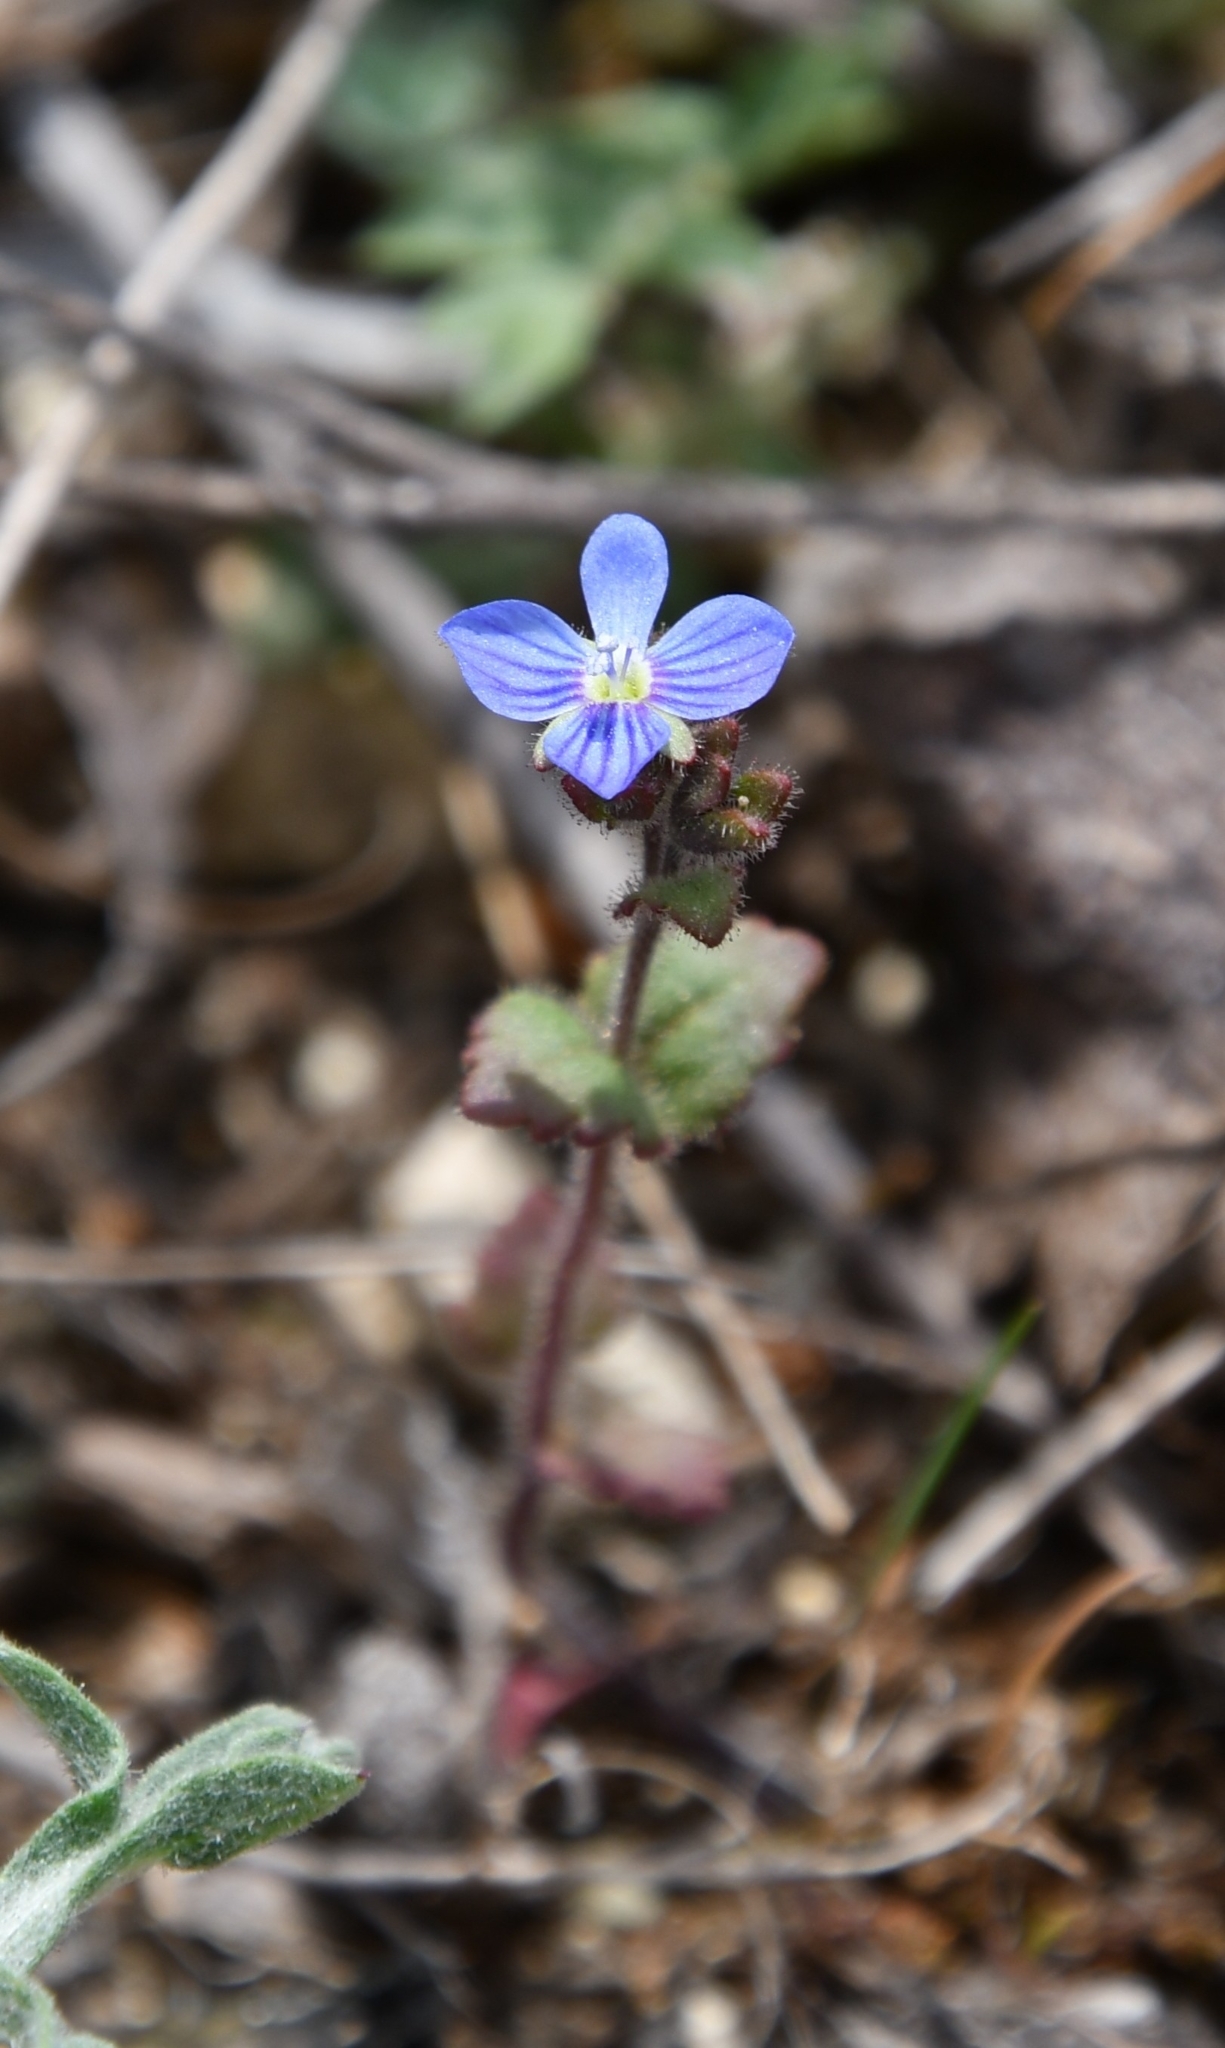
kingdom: Plantae
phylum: Tracheophyta
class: Magnoliopsida
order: Lamiales
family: Plantaginaceae
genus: Veronica
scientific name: Veronica praecox
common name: Breckland speedwell
